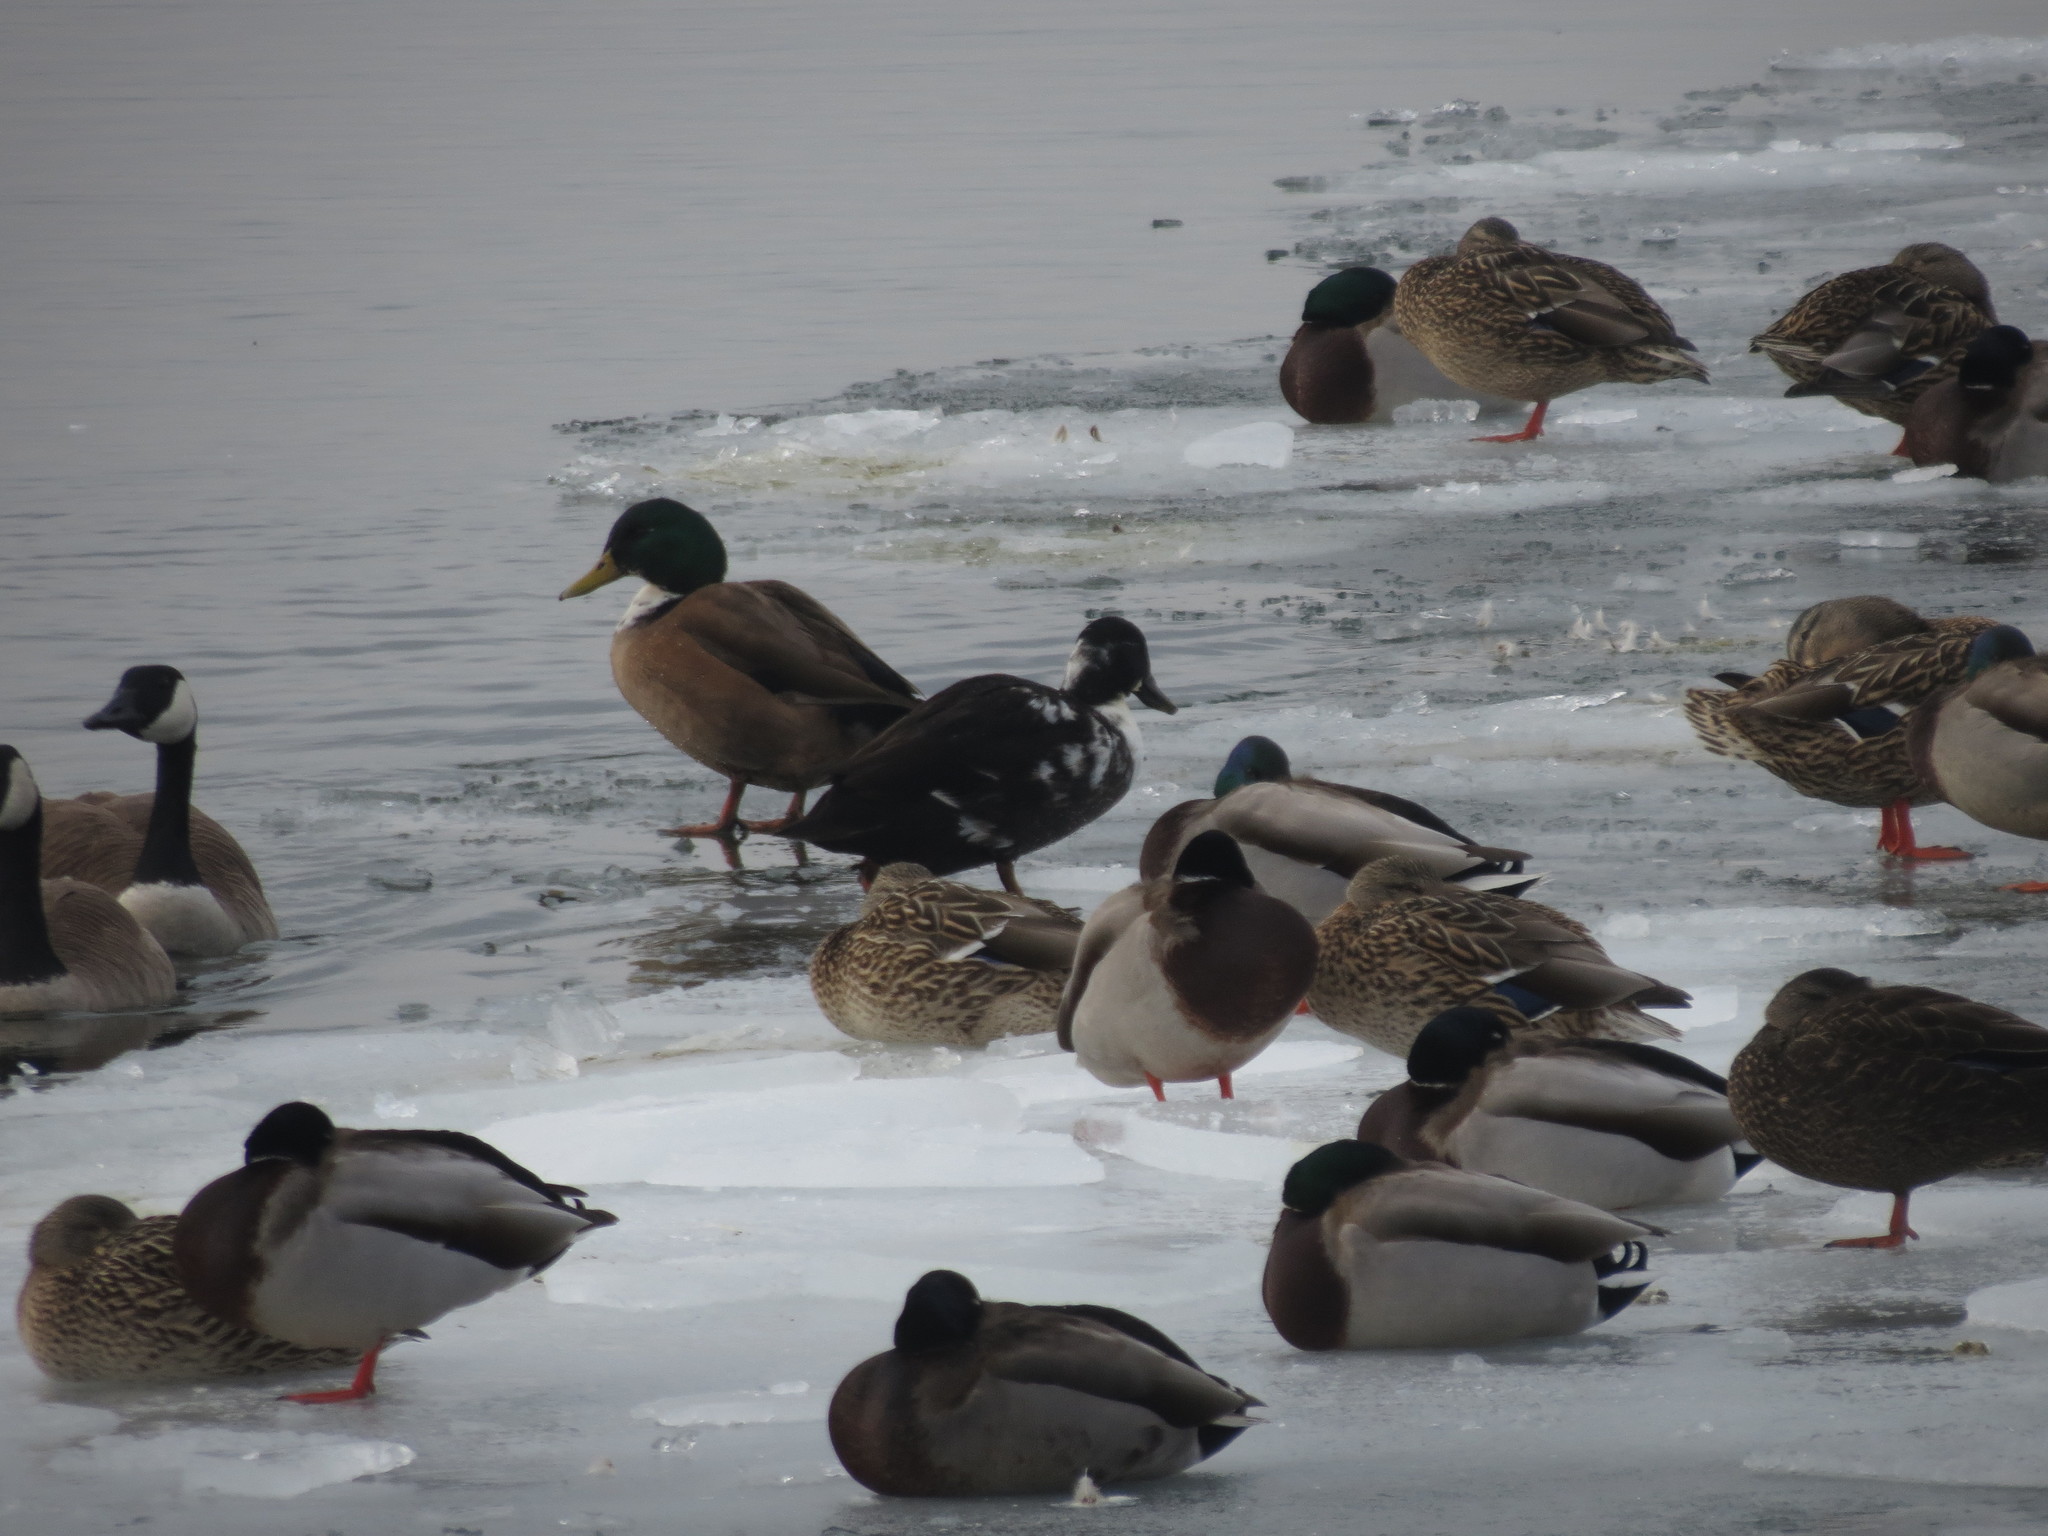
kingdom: Animalia
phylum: Chordata
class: Aves
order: Anseriformes
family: Anatidae
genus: Anas
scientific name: Anas platyrhynchos
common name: Mallard
